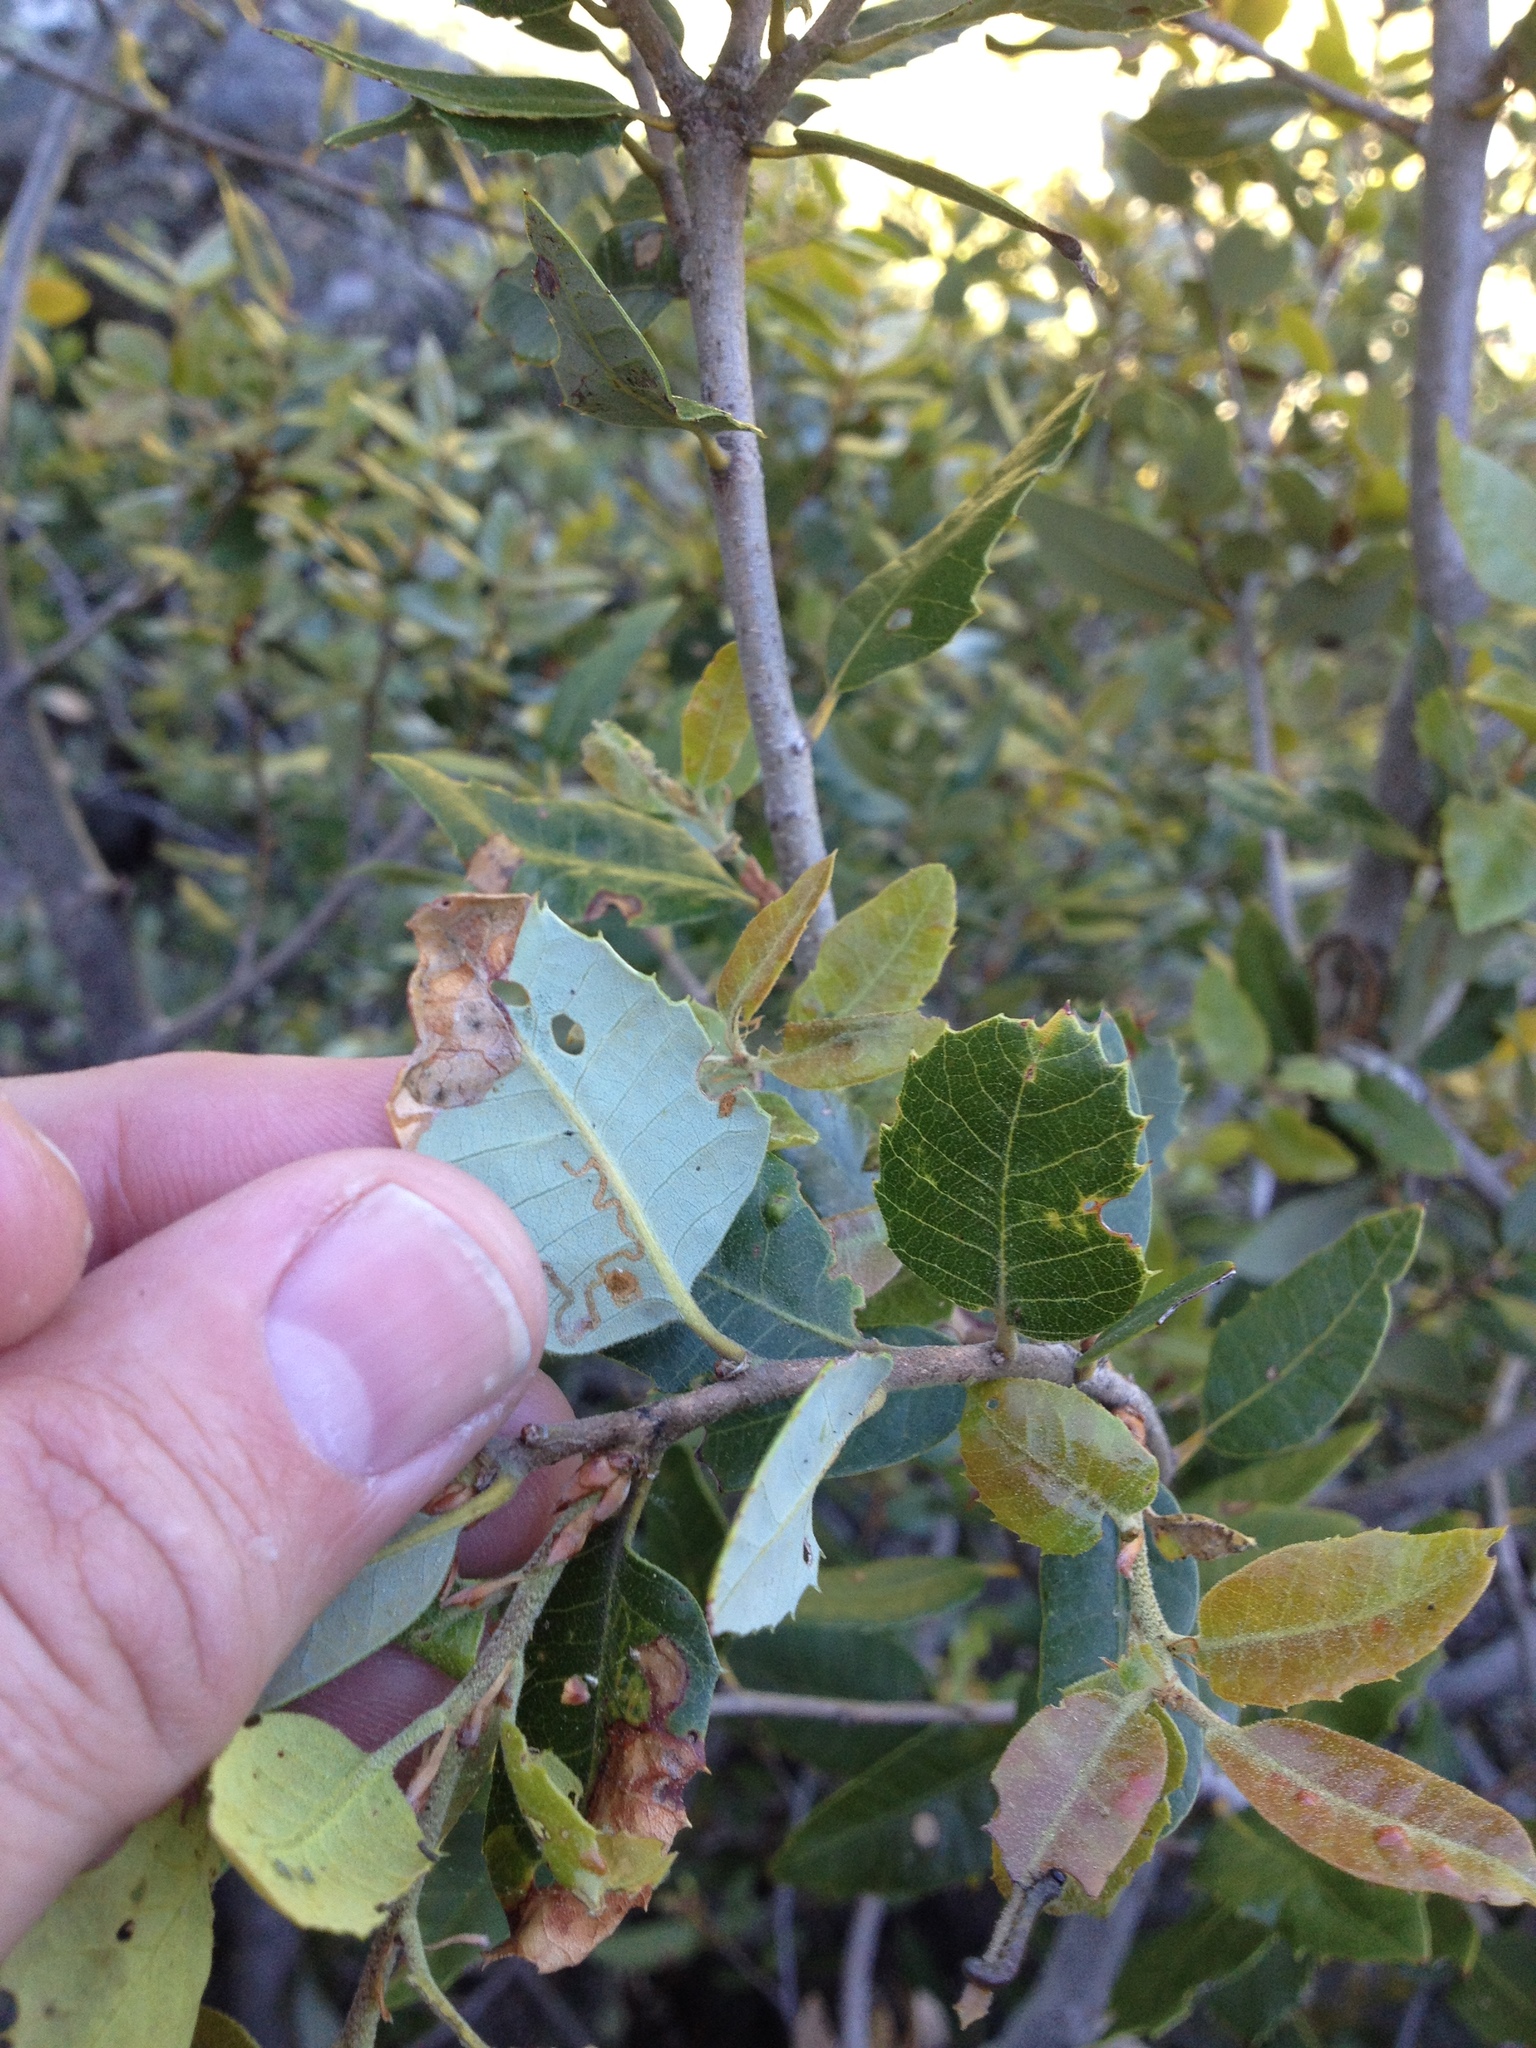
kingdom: Plantae
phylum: Tracheophyta
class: Magnoliopsida
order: Fagales
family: Fagaceae
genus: Quercus
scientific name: Quercus chrysolepis
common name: Canyon live oak
